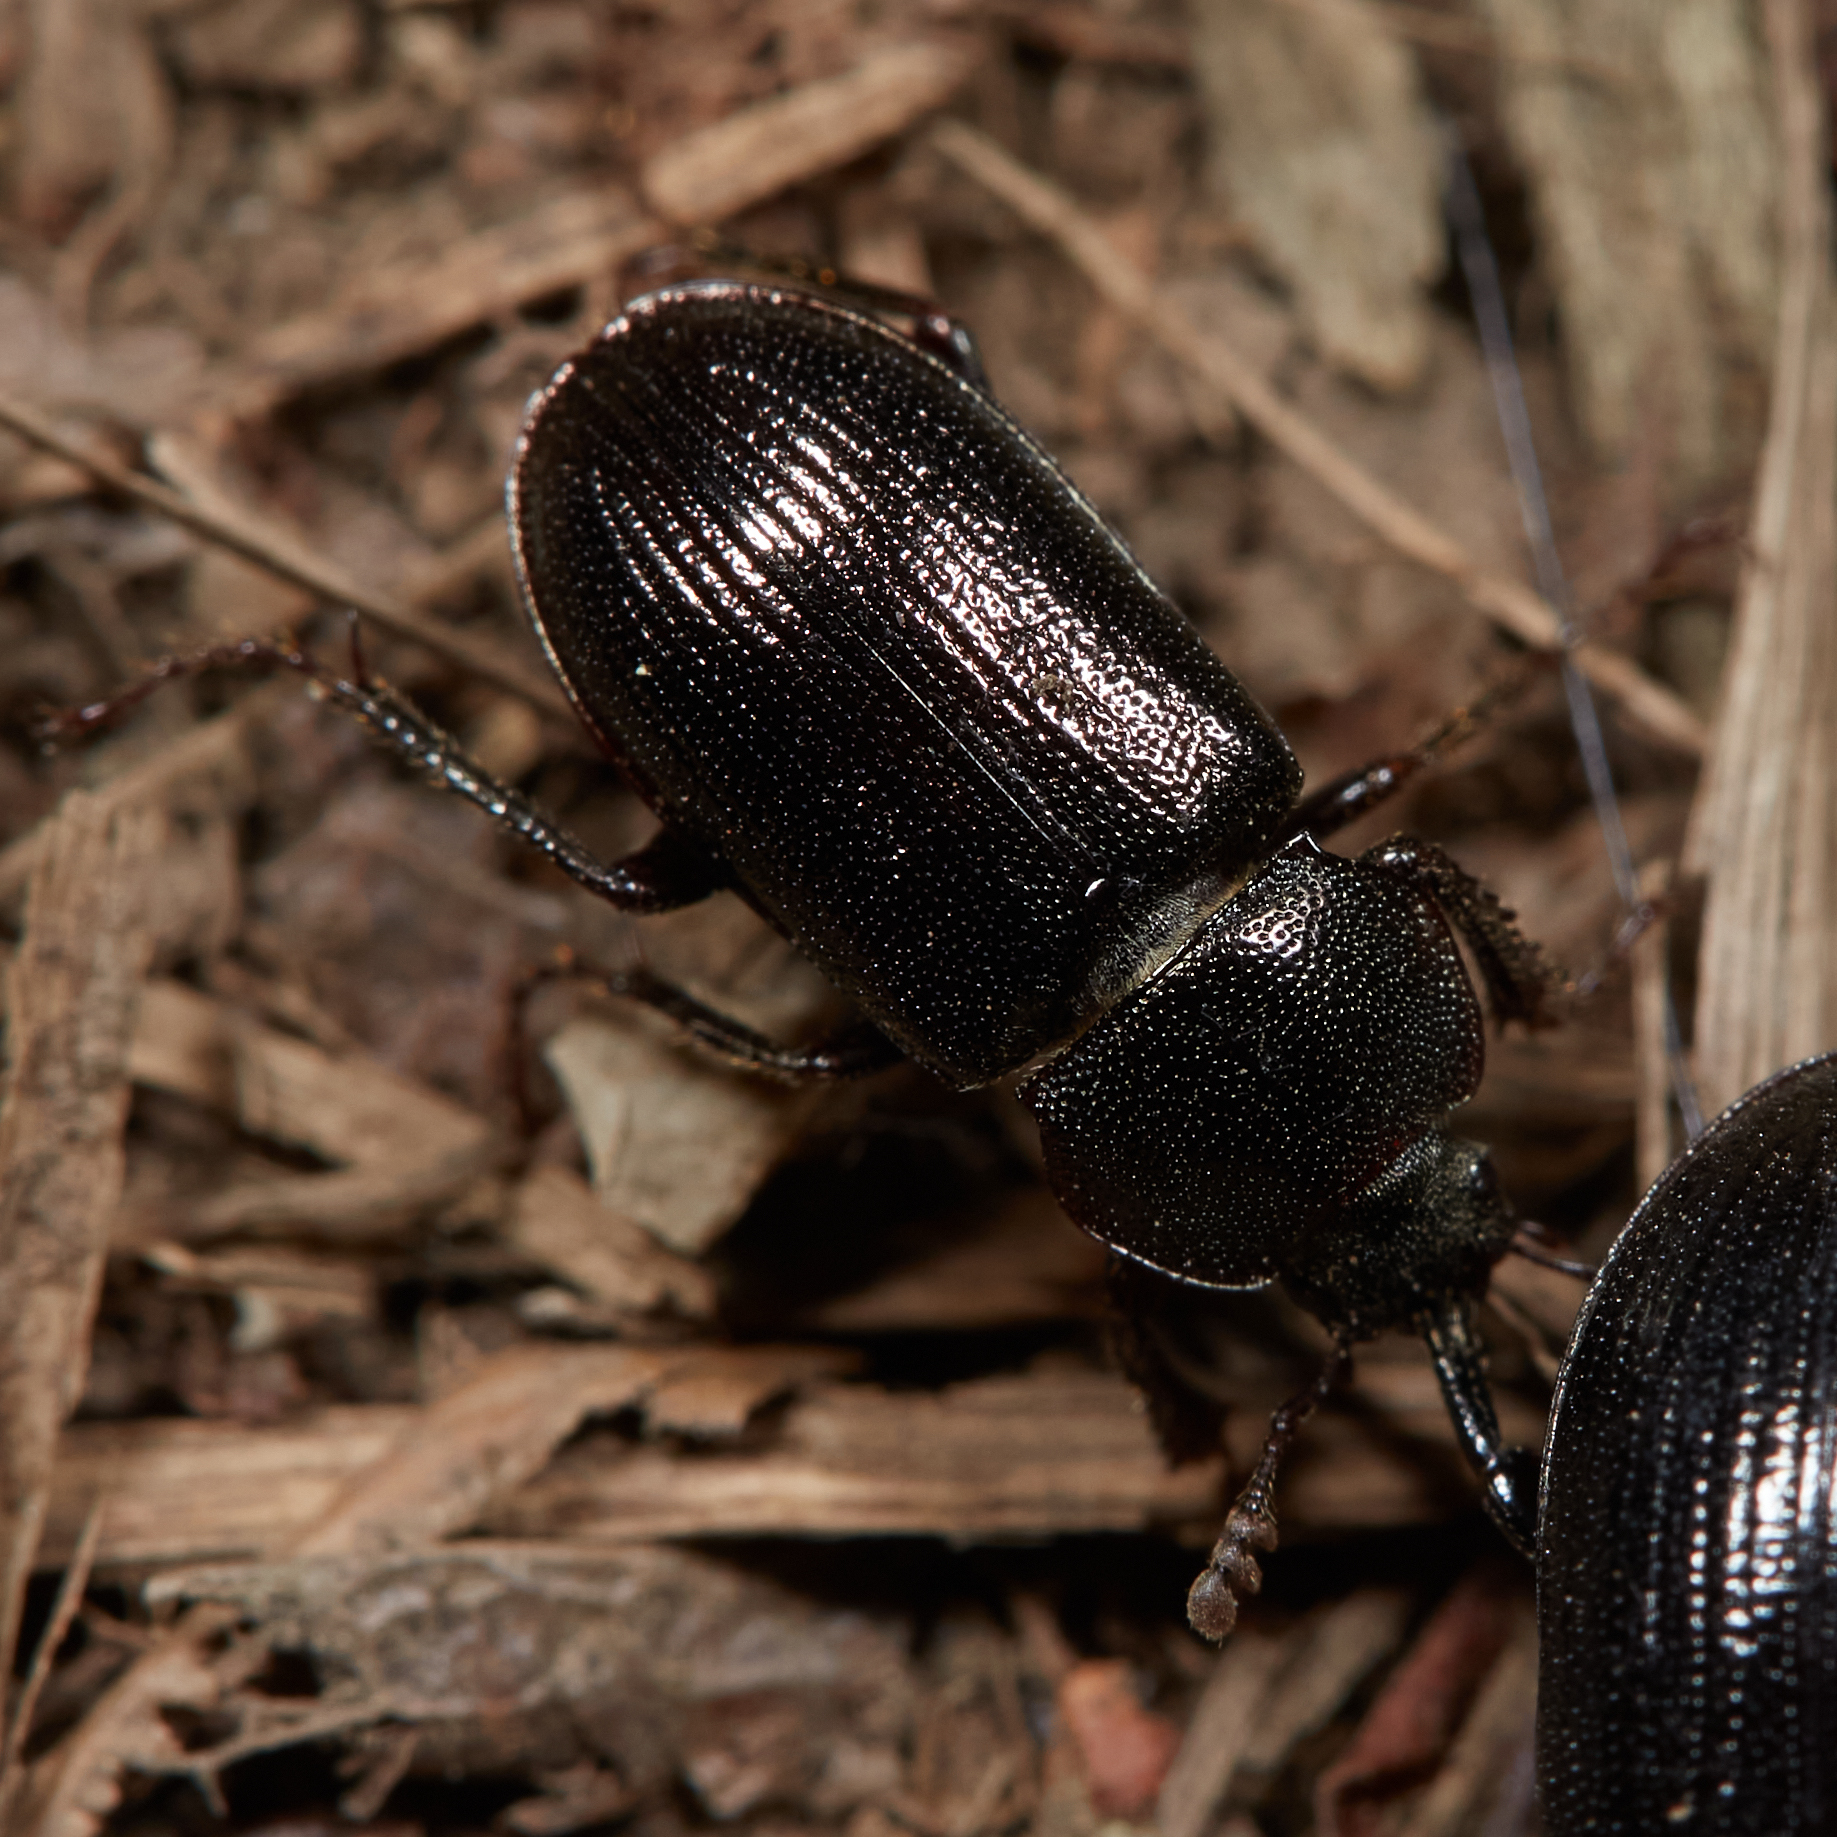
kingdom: Animalia
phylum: Arthropoda
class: Insecta
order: Coleoptera
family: Lucanidae
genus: Platyceroides
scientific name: Platyceroides thoracica
